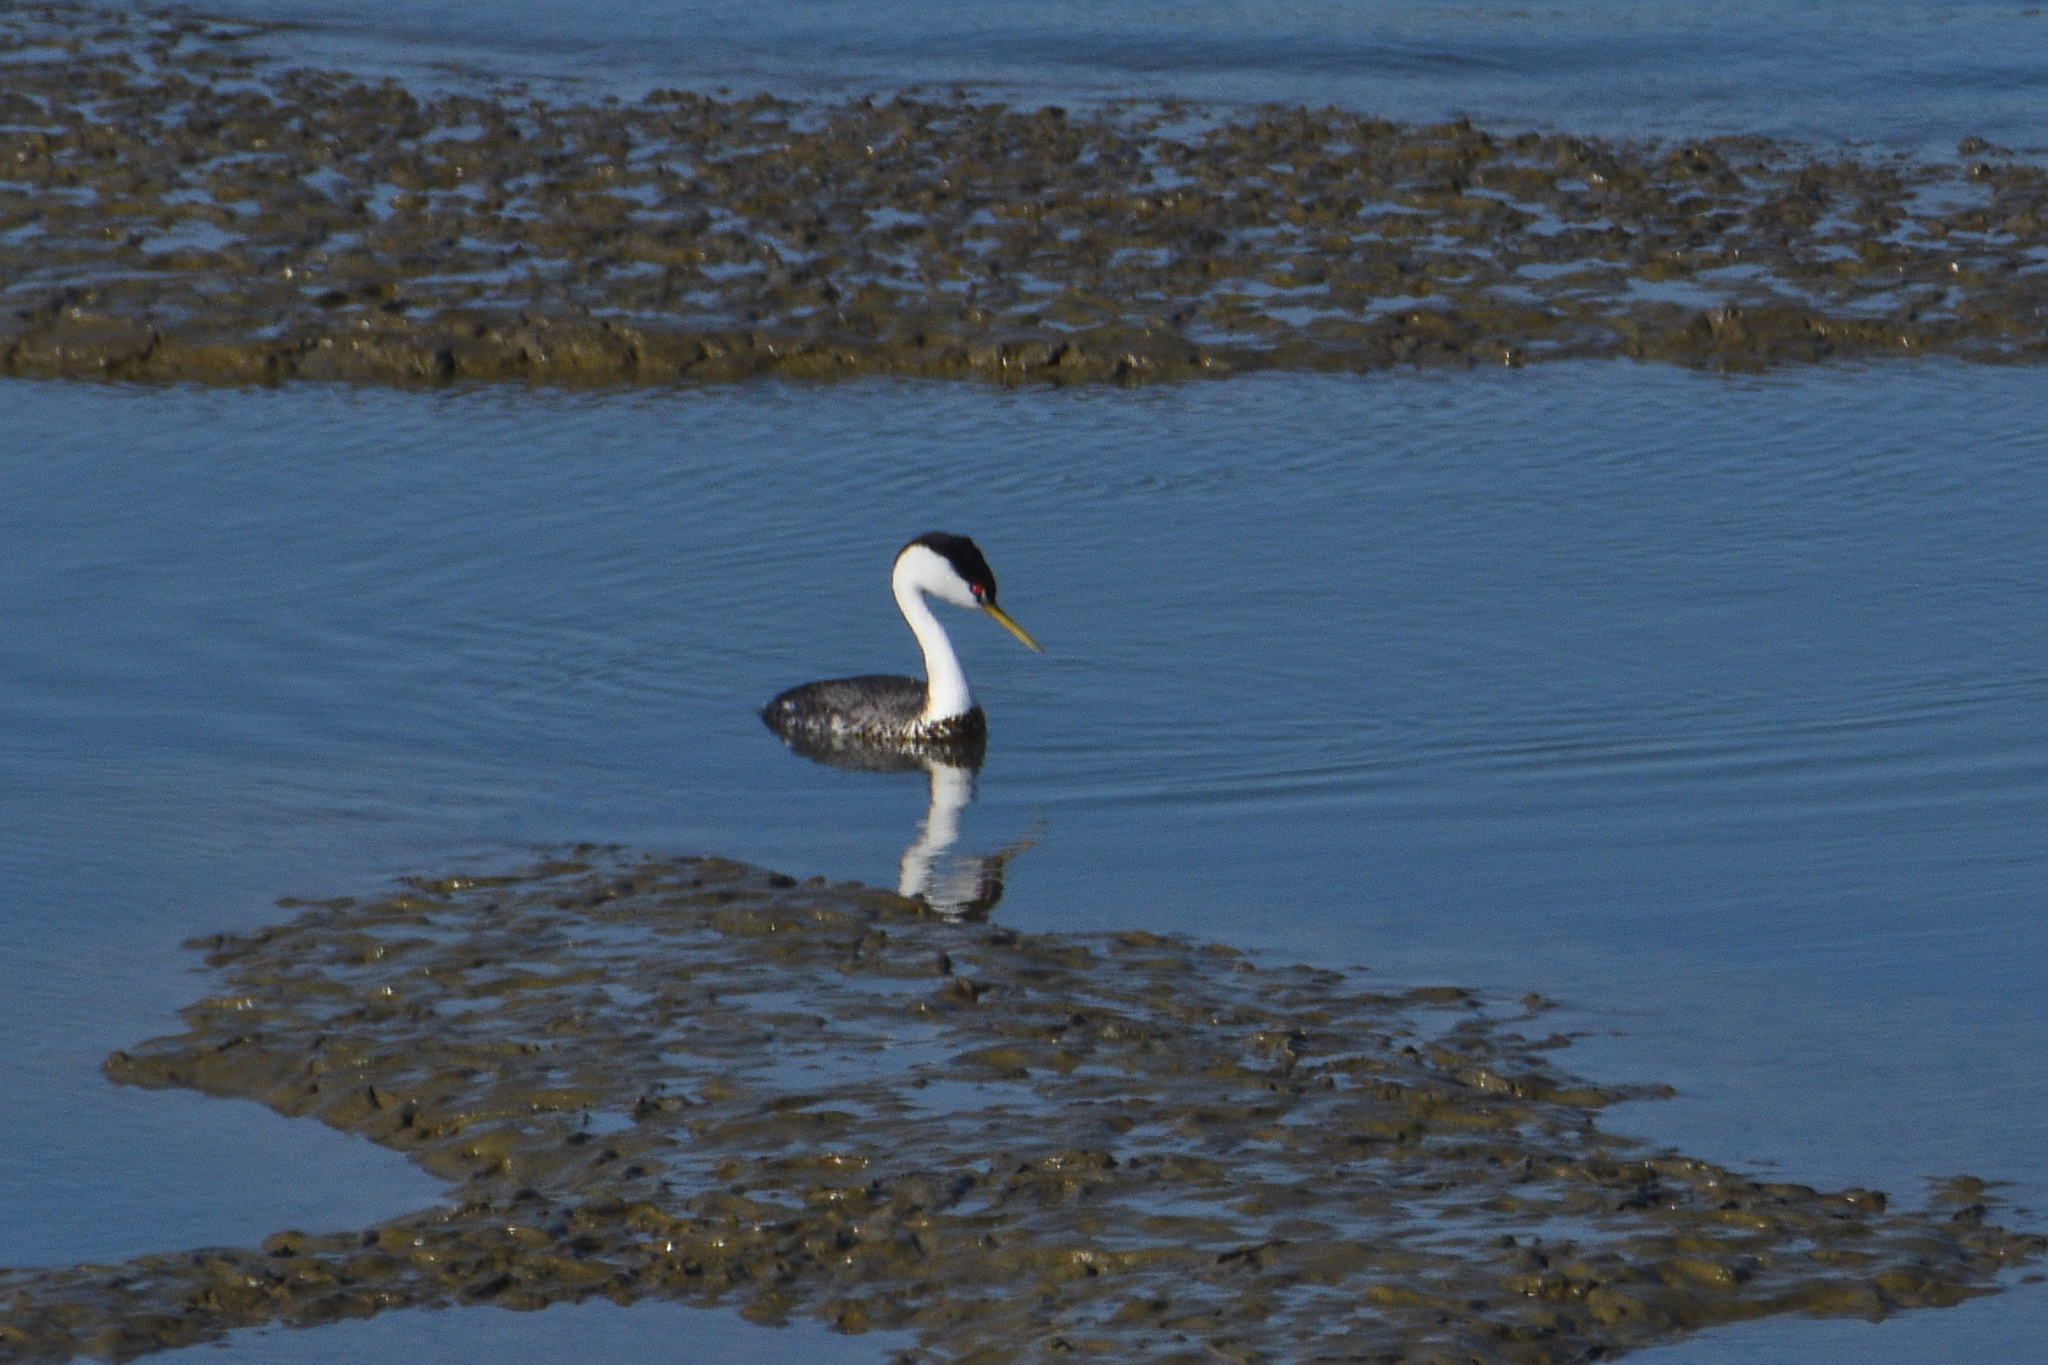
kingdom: Animalia
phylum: Chordata
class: Aves
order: Podicipediformes
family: Podicipedidae
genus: Aechmophorus
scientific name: Aechmophorus occidentalis
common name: Western grebe
